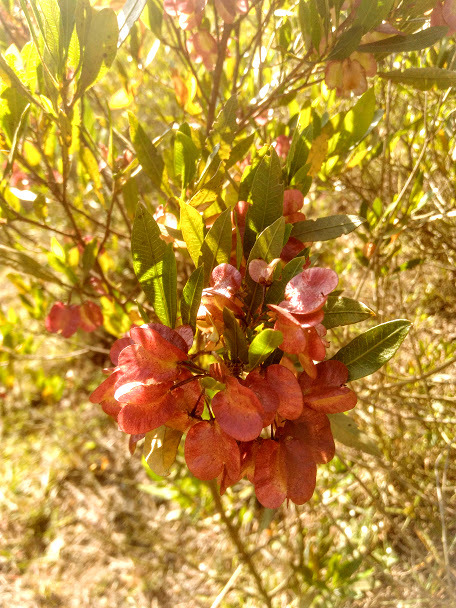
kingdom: Plantae
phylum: Tracheophyta
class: Magnoliopsida
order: Sapindales
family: Sapindaceae
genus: Dodonaea
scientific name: Dodonaea viscosa
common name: Hopbush
